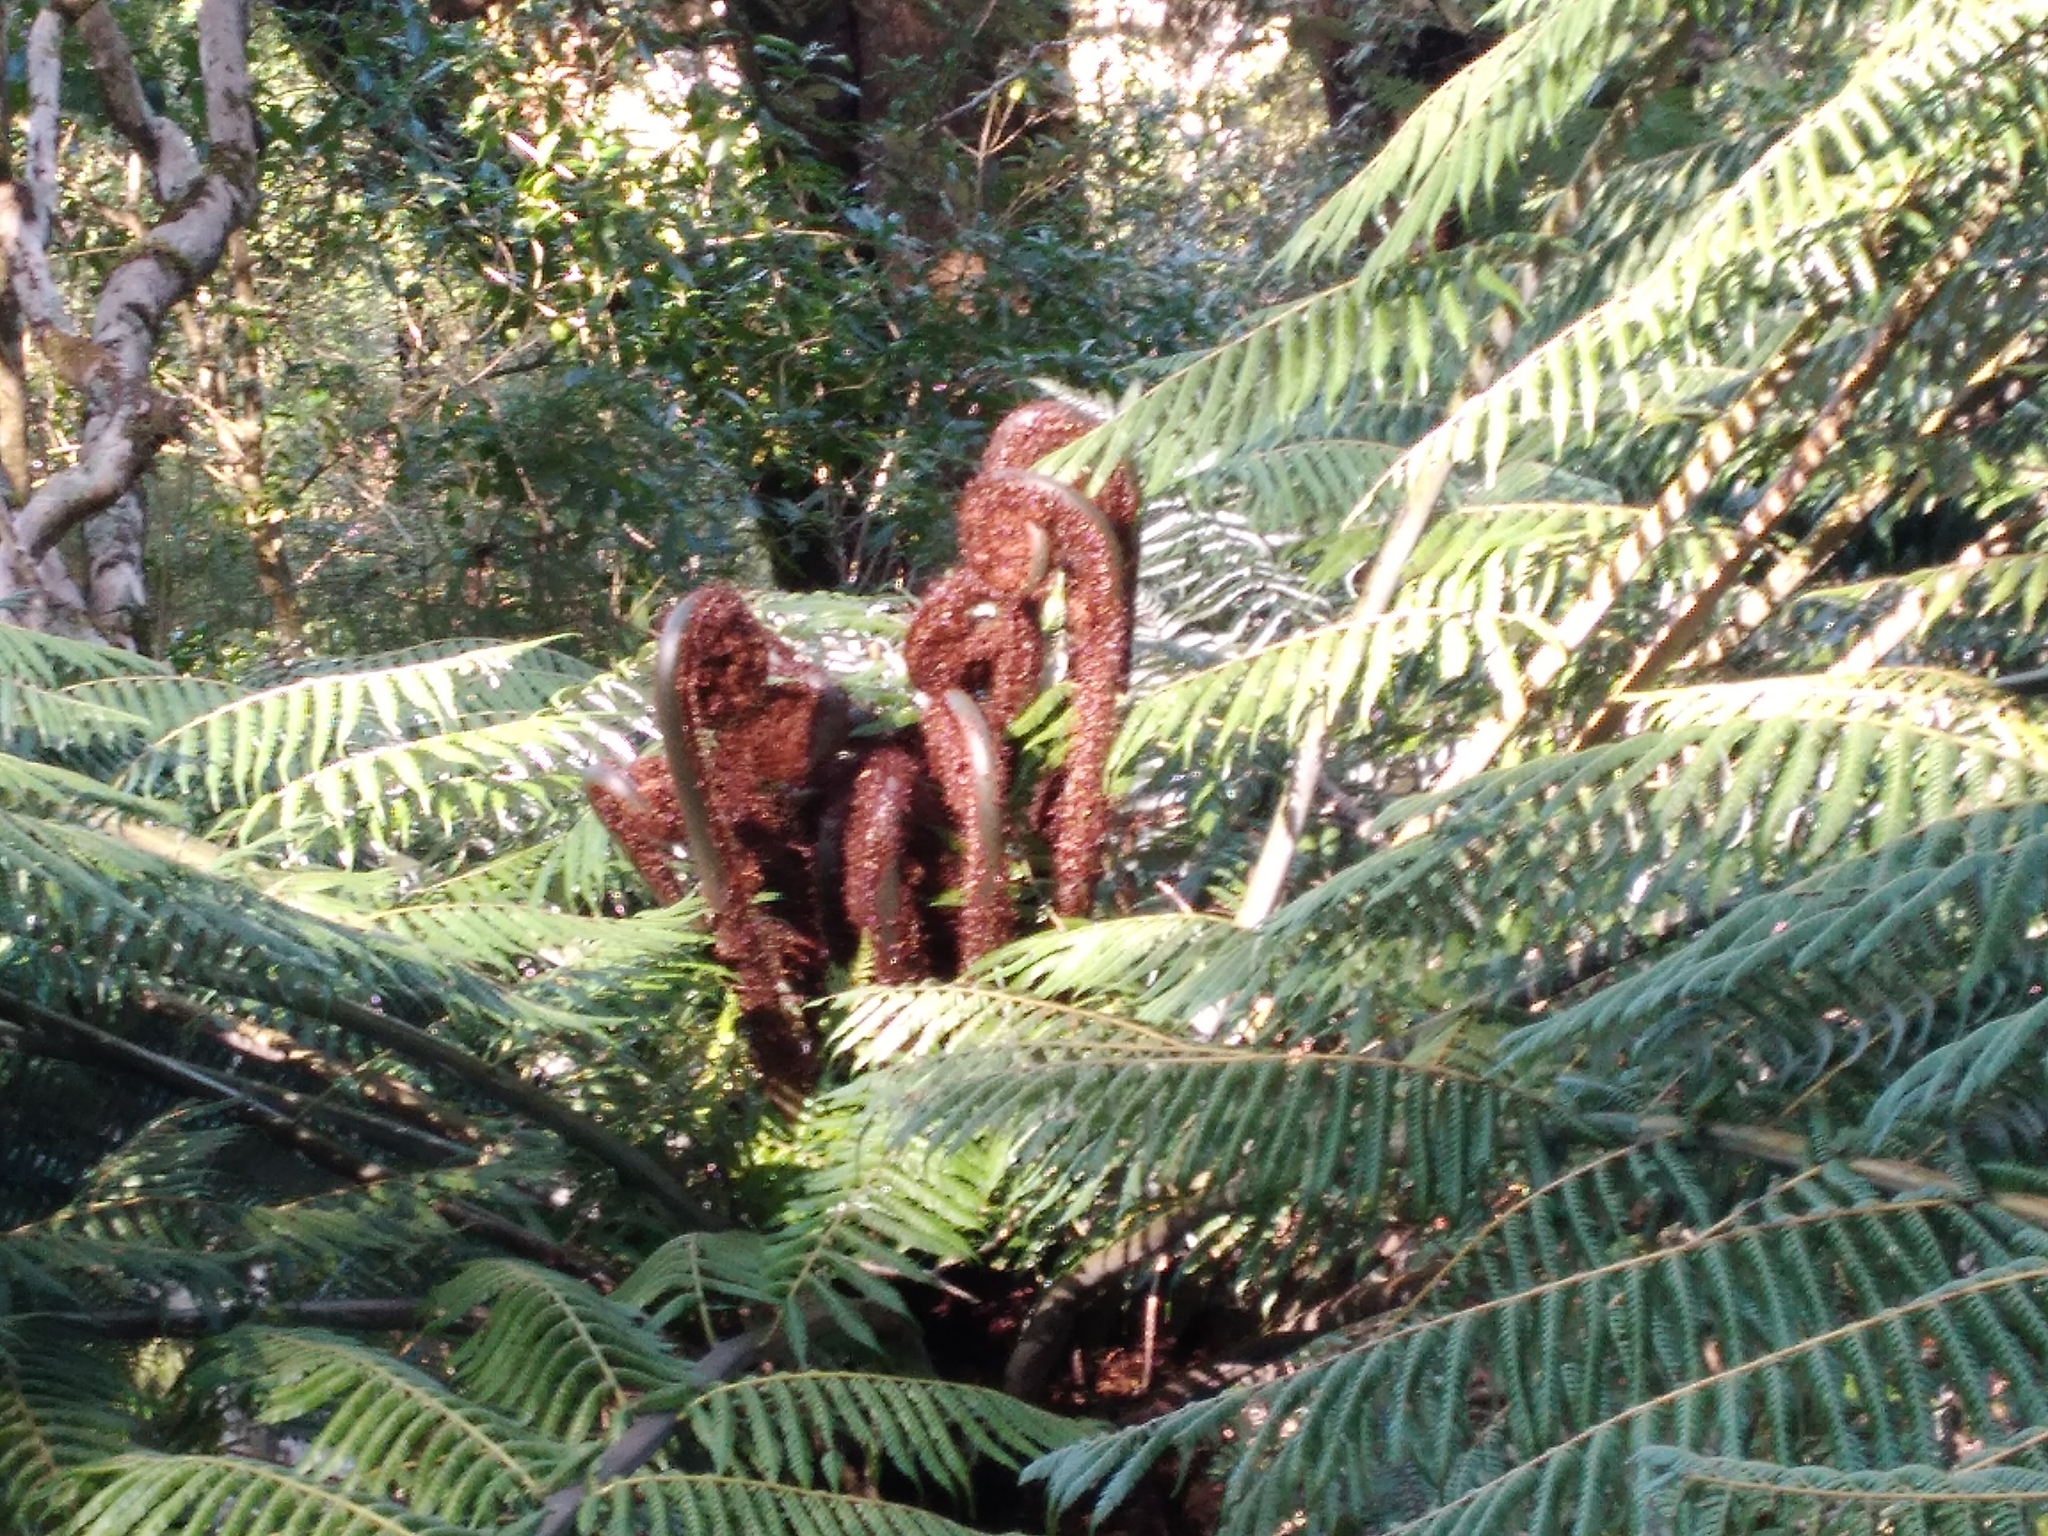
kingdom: Plantae
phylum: Tracheophyta
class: Polypodiopsida
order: Cyatheales
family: Cyatheaceae
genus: Alsophila
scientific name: Alsophila dealbata
